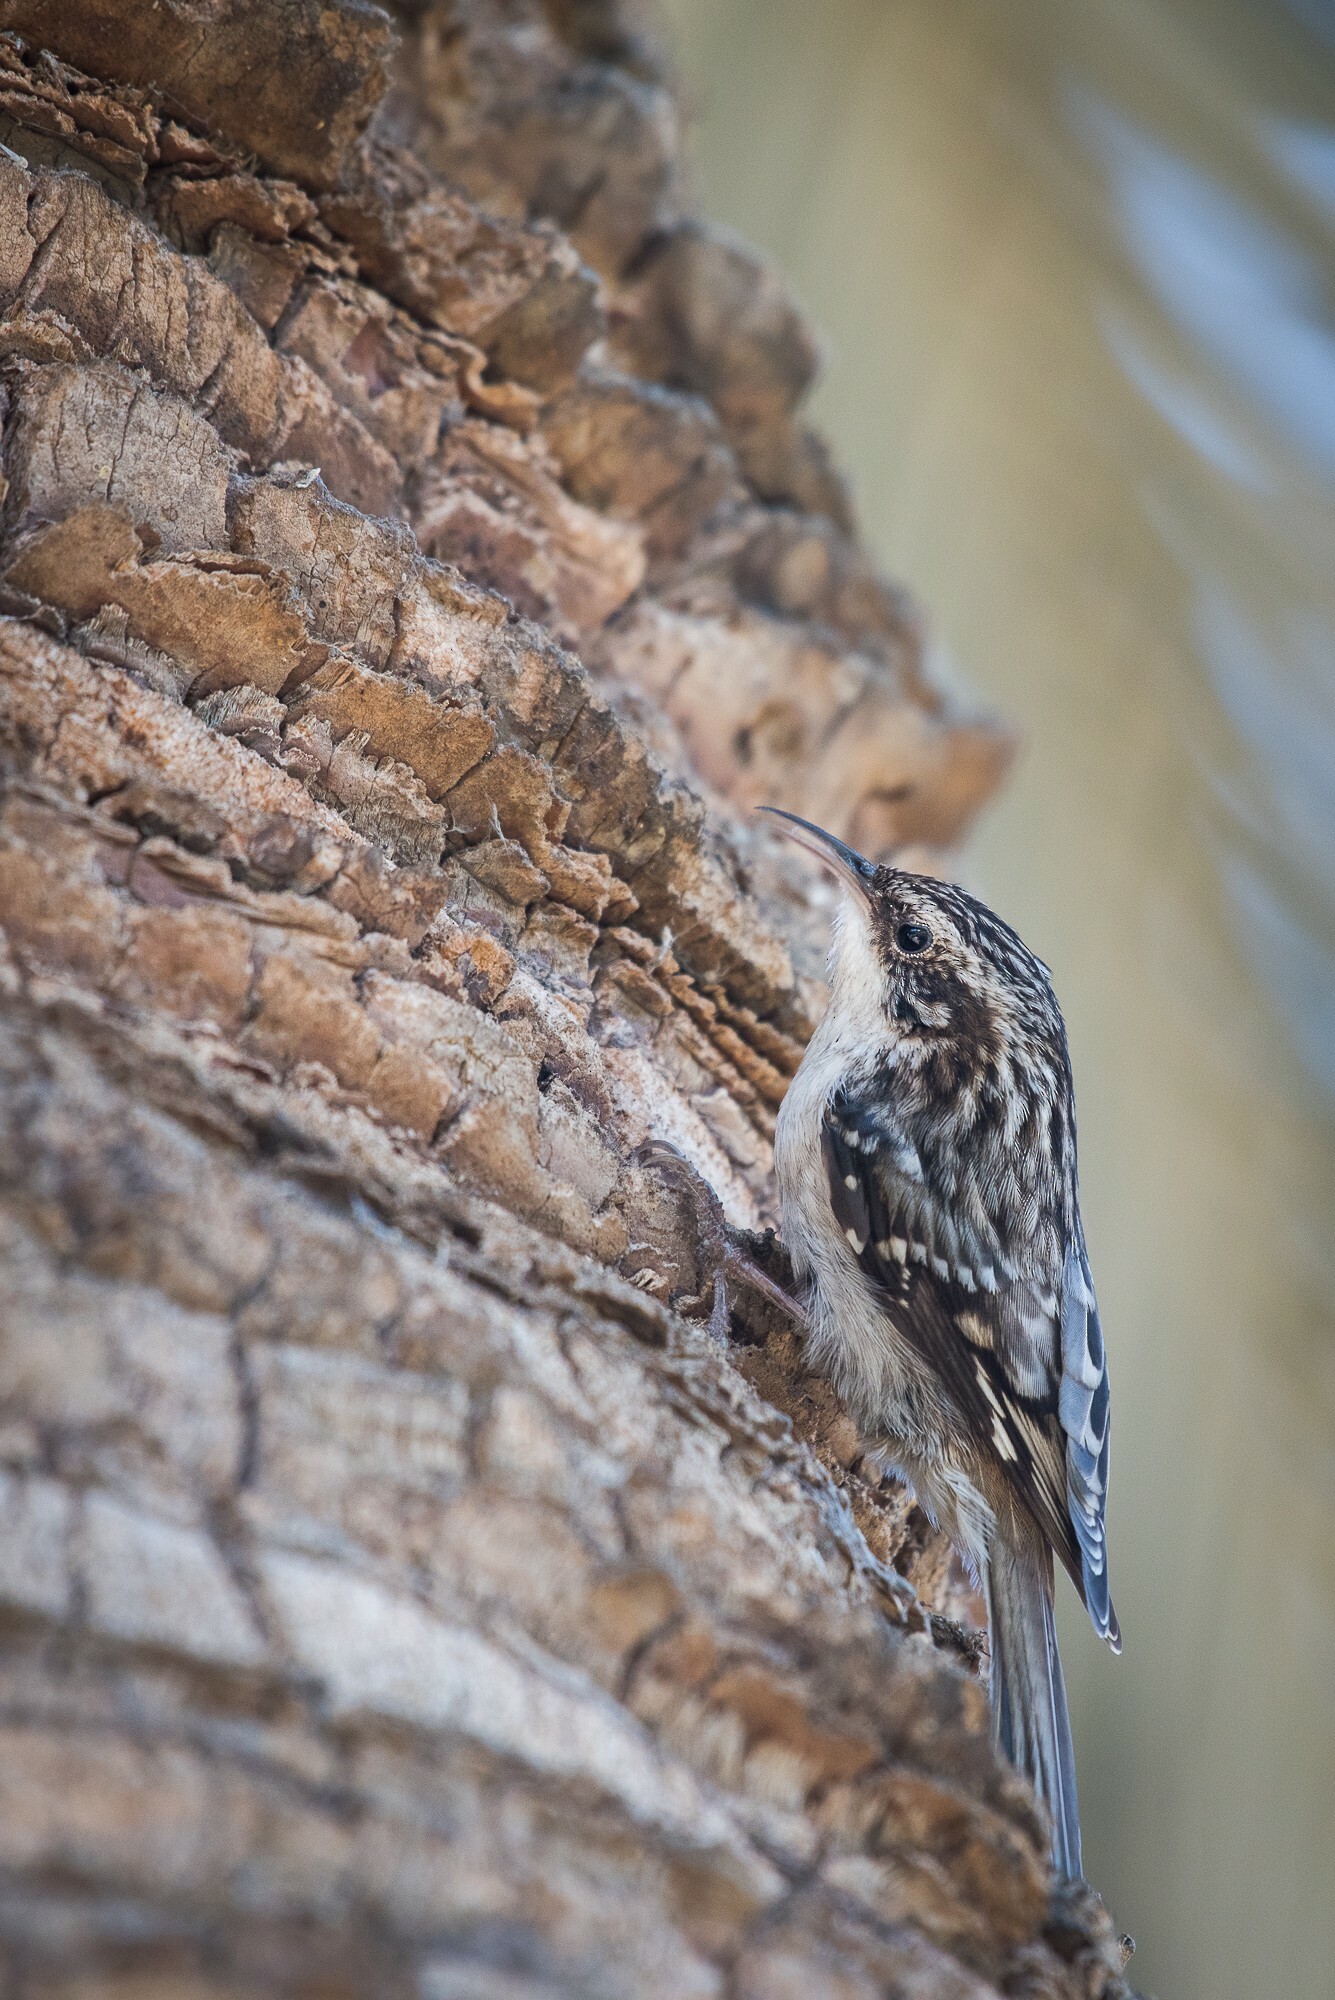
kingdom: Animalia
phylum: Chordata
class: Aves
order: Passeriformes
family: Certhiidae
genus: Certhia
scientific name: Certhia americana
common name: Brown creeper
